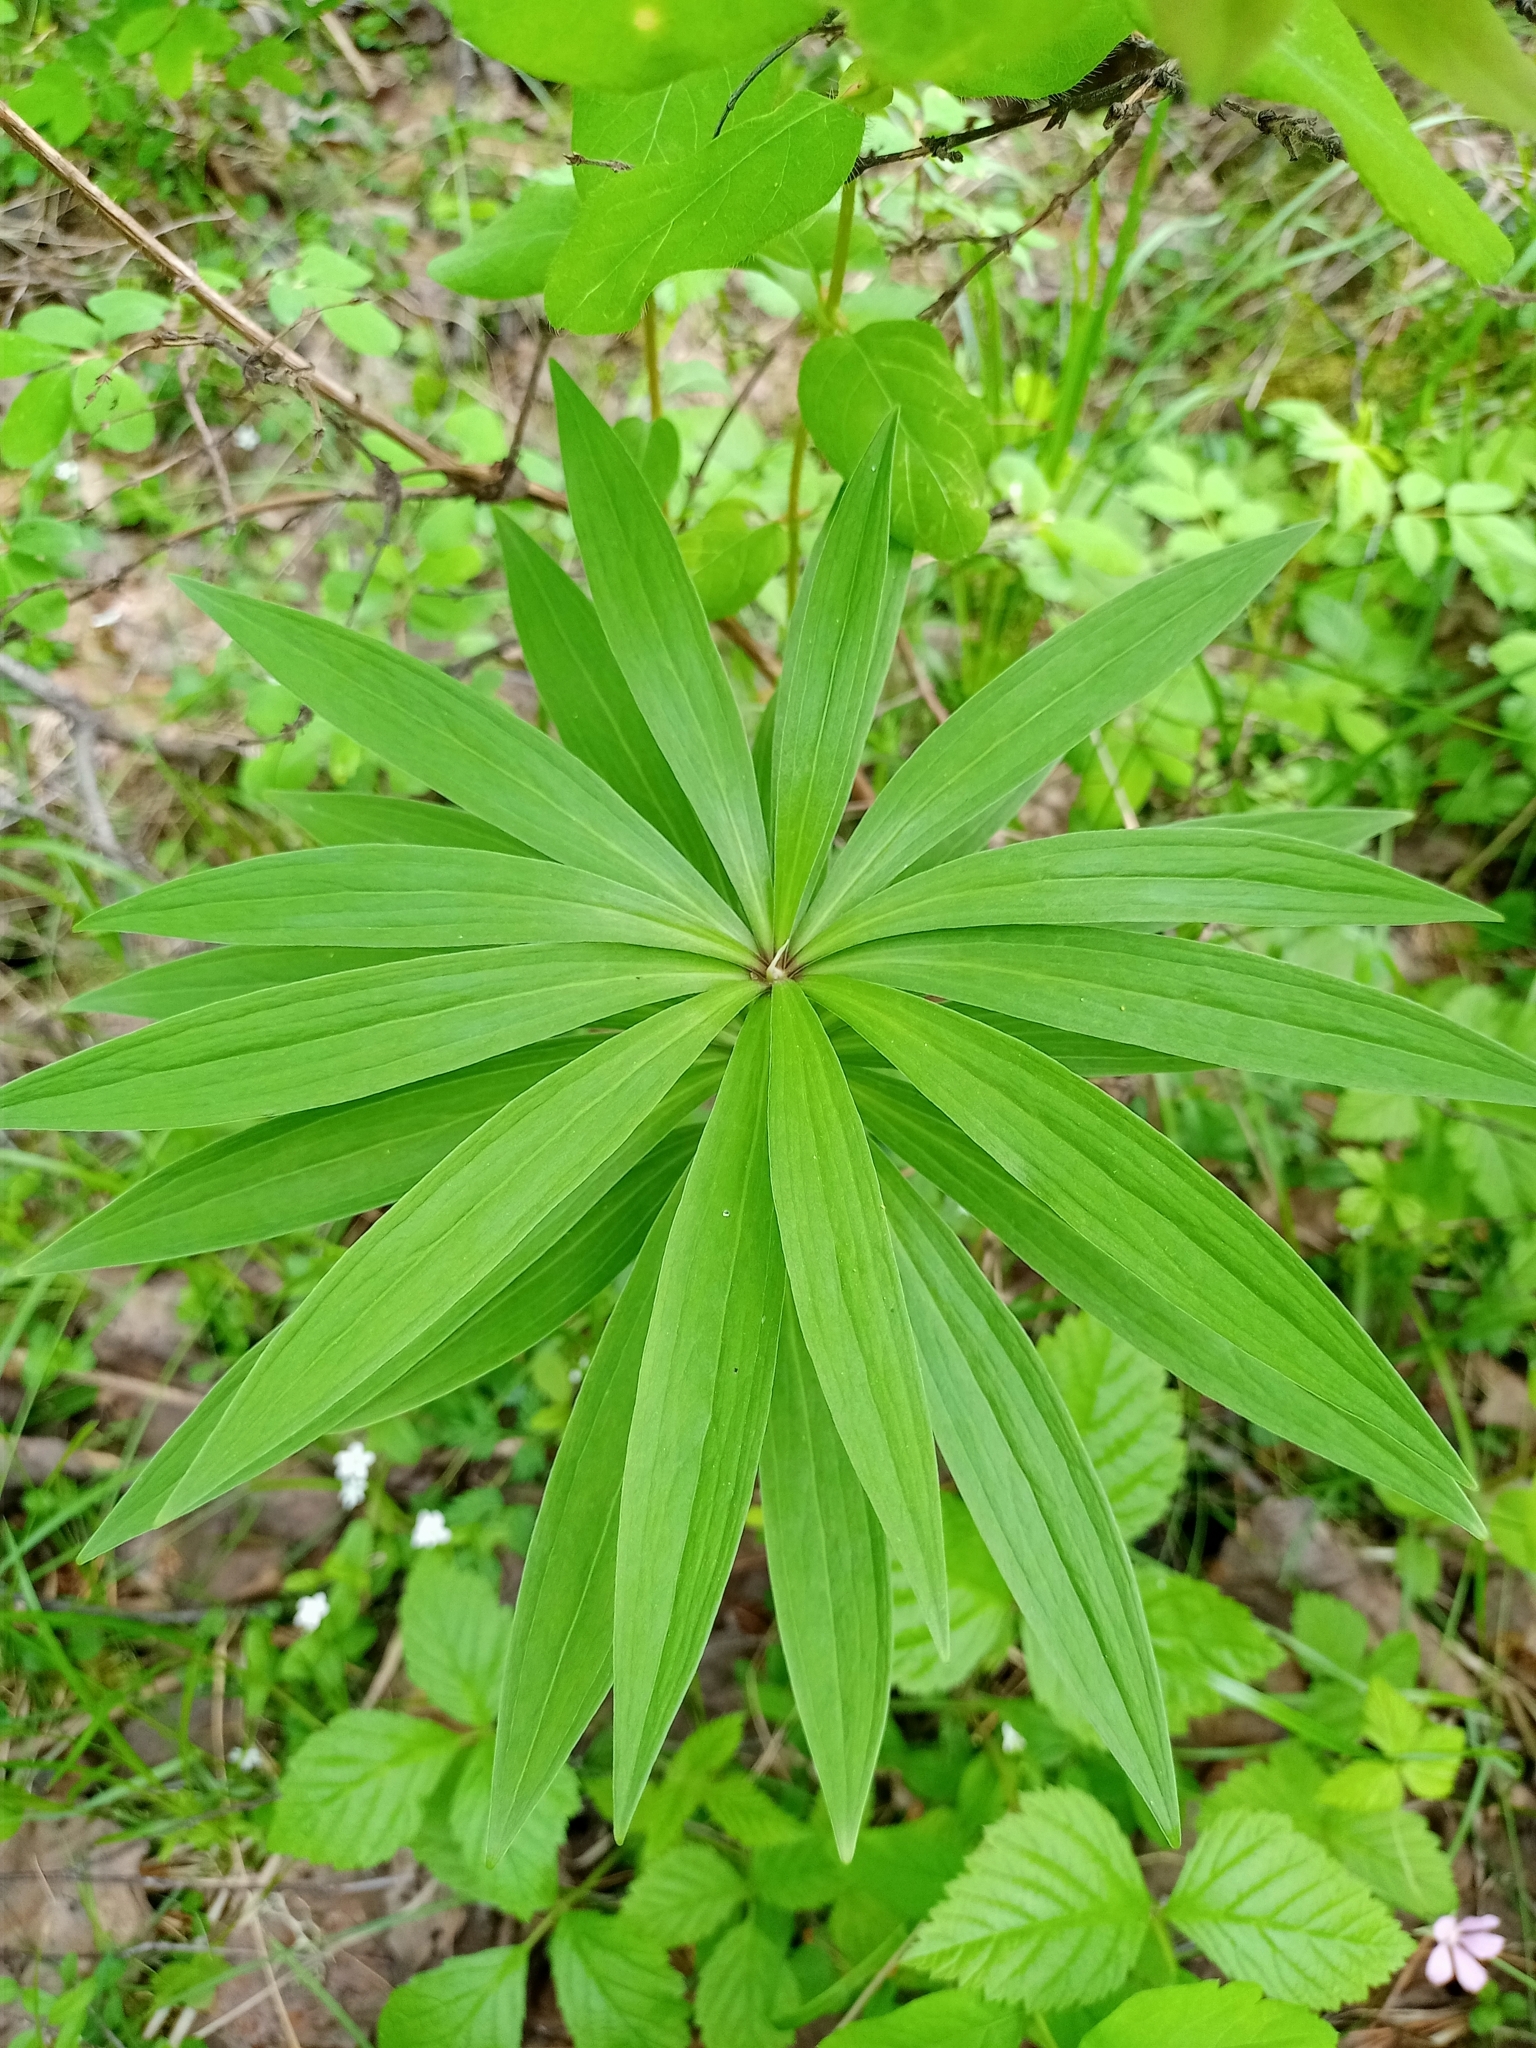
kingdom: Plantae
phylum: Tracheophyta
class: Liliopsida
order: Liliales
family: Liliaceae
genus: Lilium
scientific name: Lilium martagon
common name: Martagon lily
